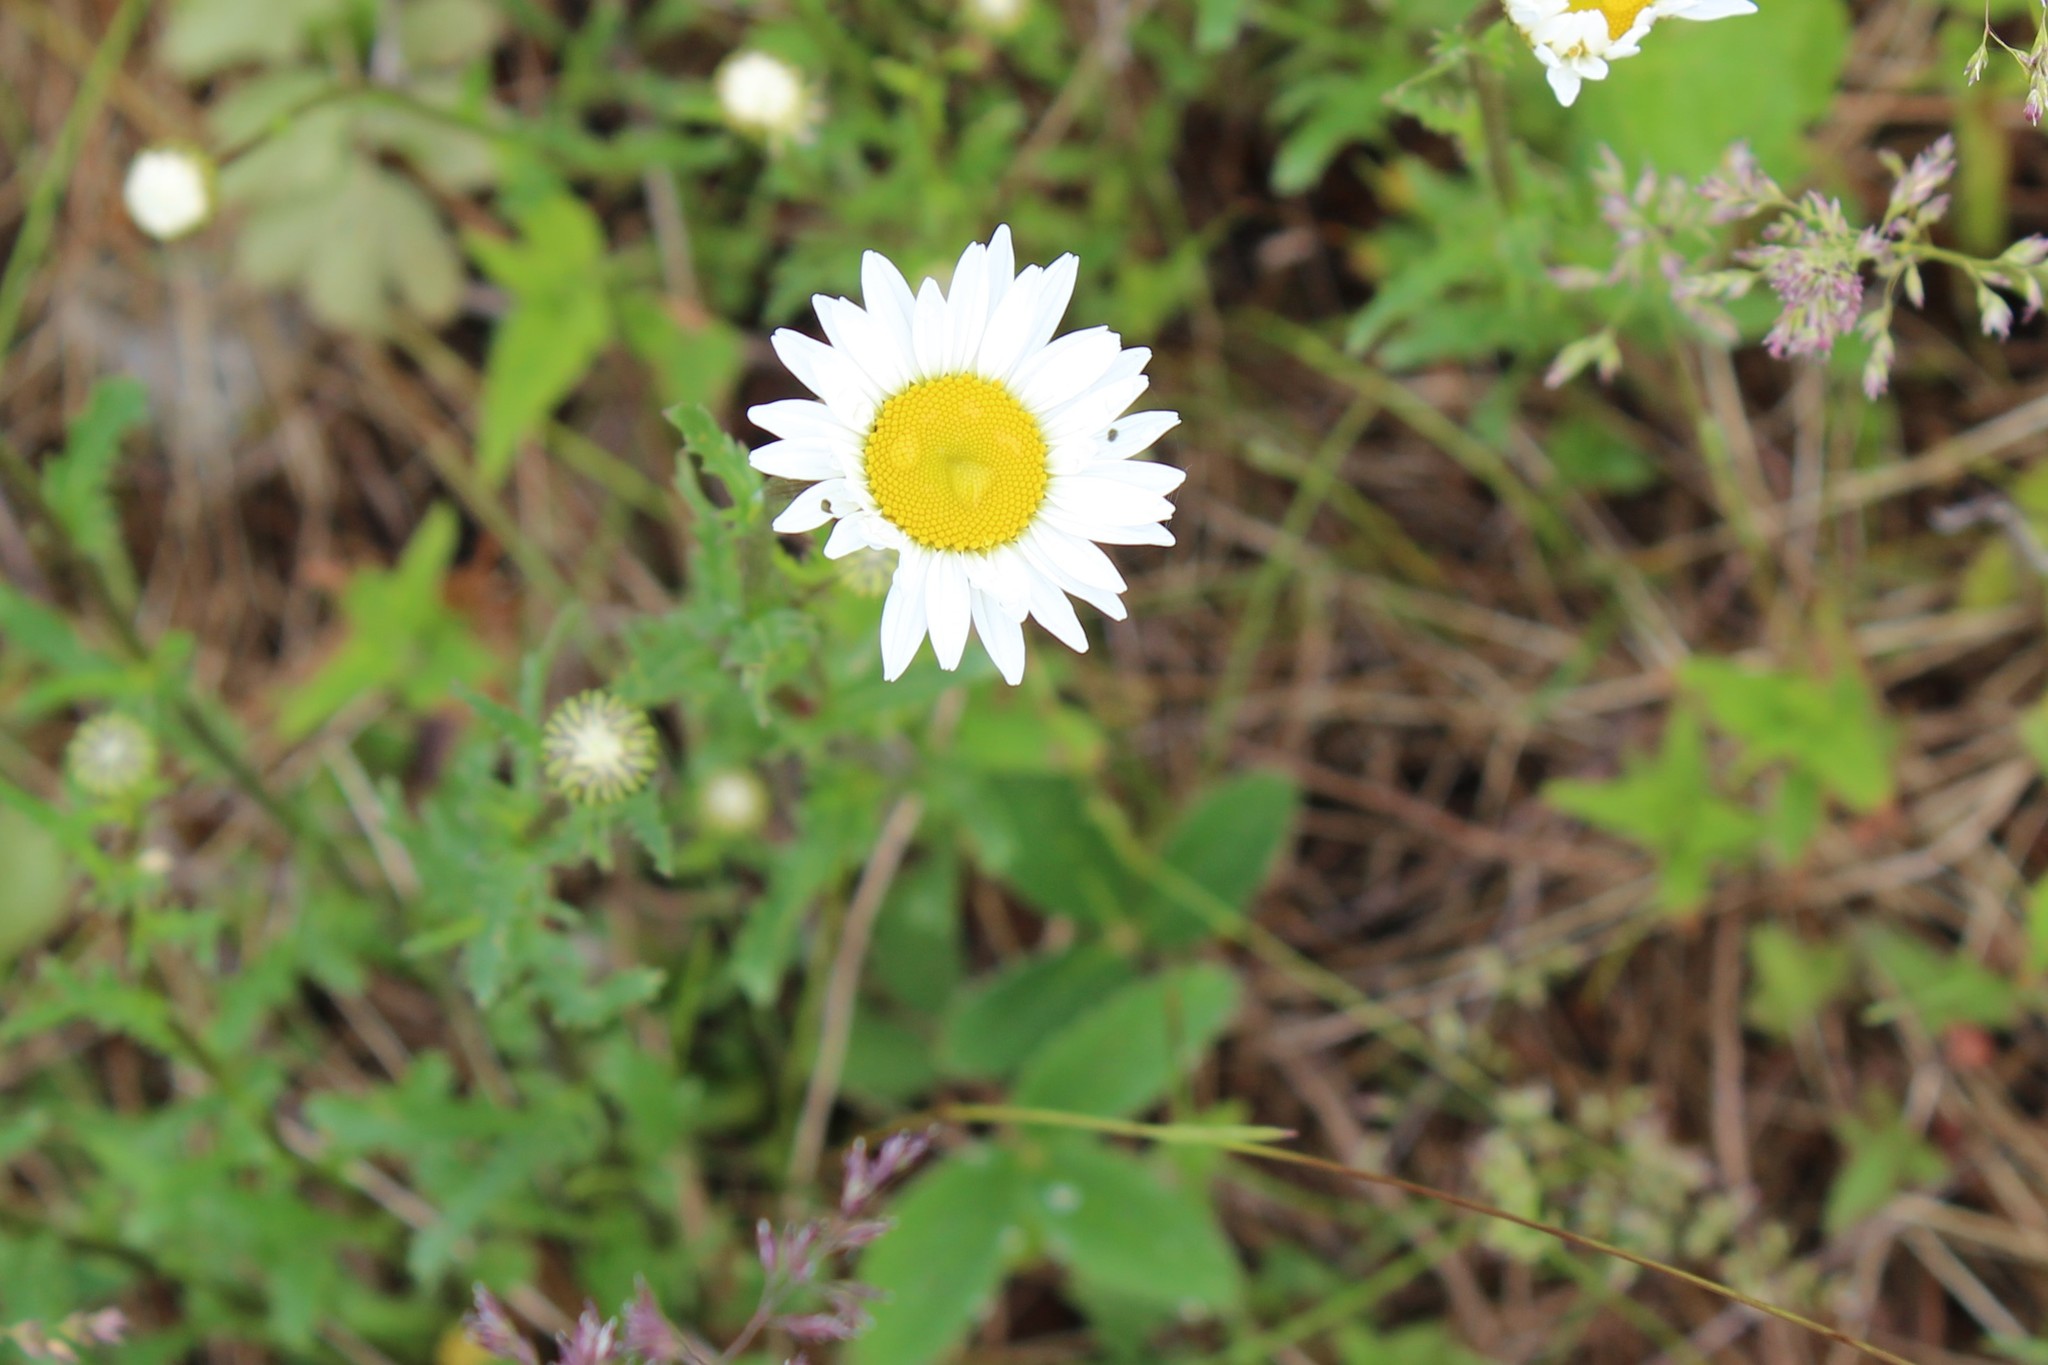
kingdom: Plantae
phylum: Tracheophyta
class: Magnoliopsida
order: Asterales
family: Asteraceae
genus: Leucanthemum
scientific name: Leucanthemum vulgare
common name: Oxeye daisy
